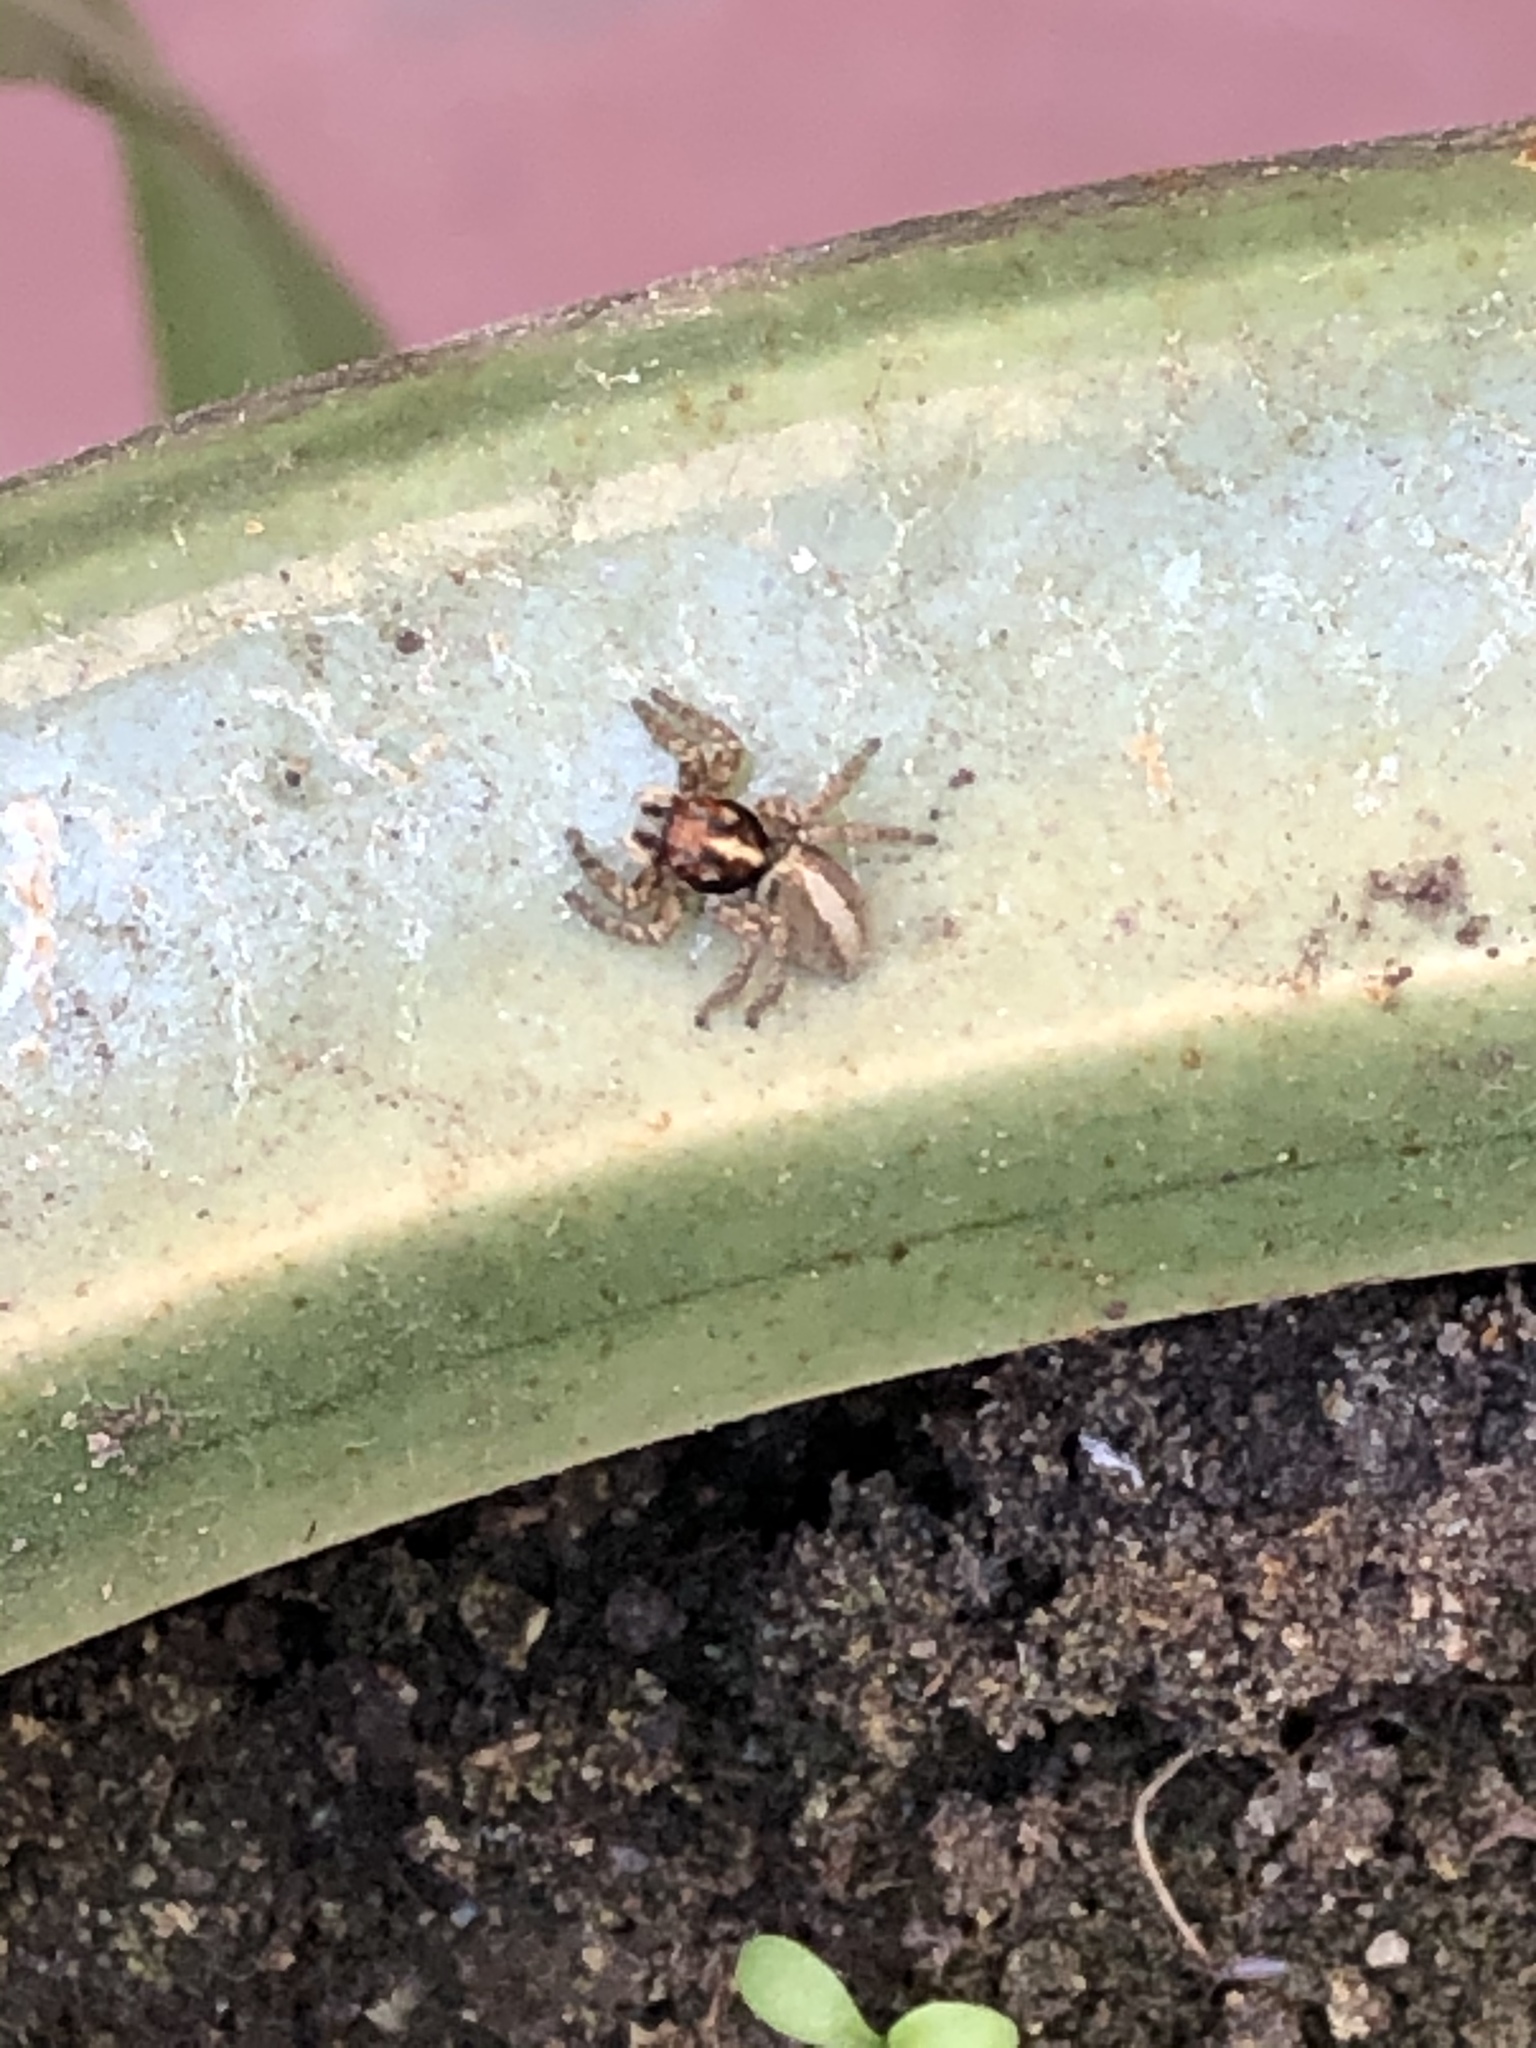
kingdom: Animalia
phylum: Arthropoda
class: Arachnida
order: Araneae
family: Salticidae
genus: Frigga
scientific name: Frigga crocuta
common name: Jumping spiders
